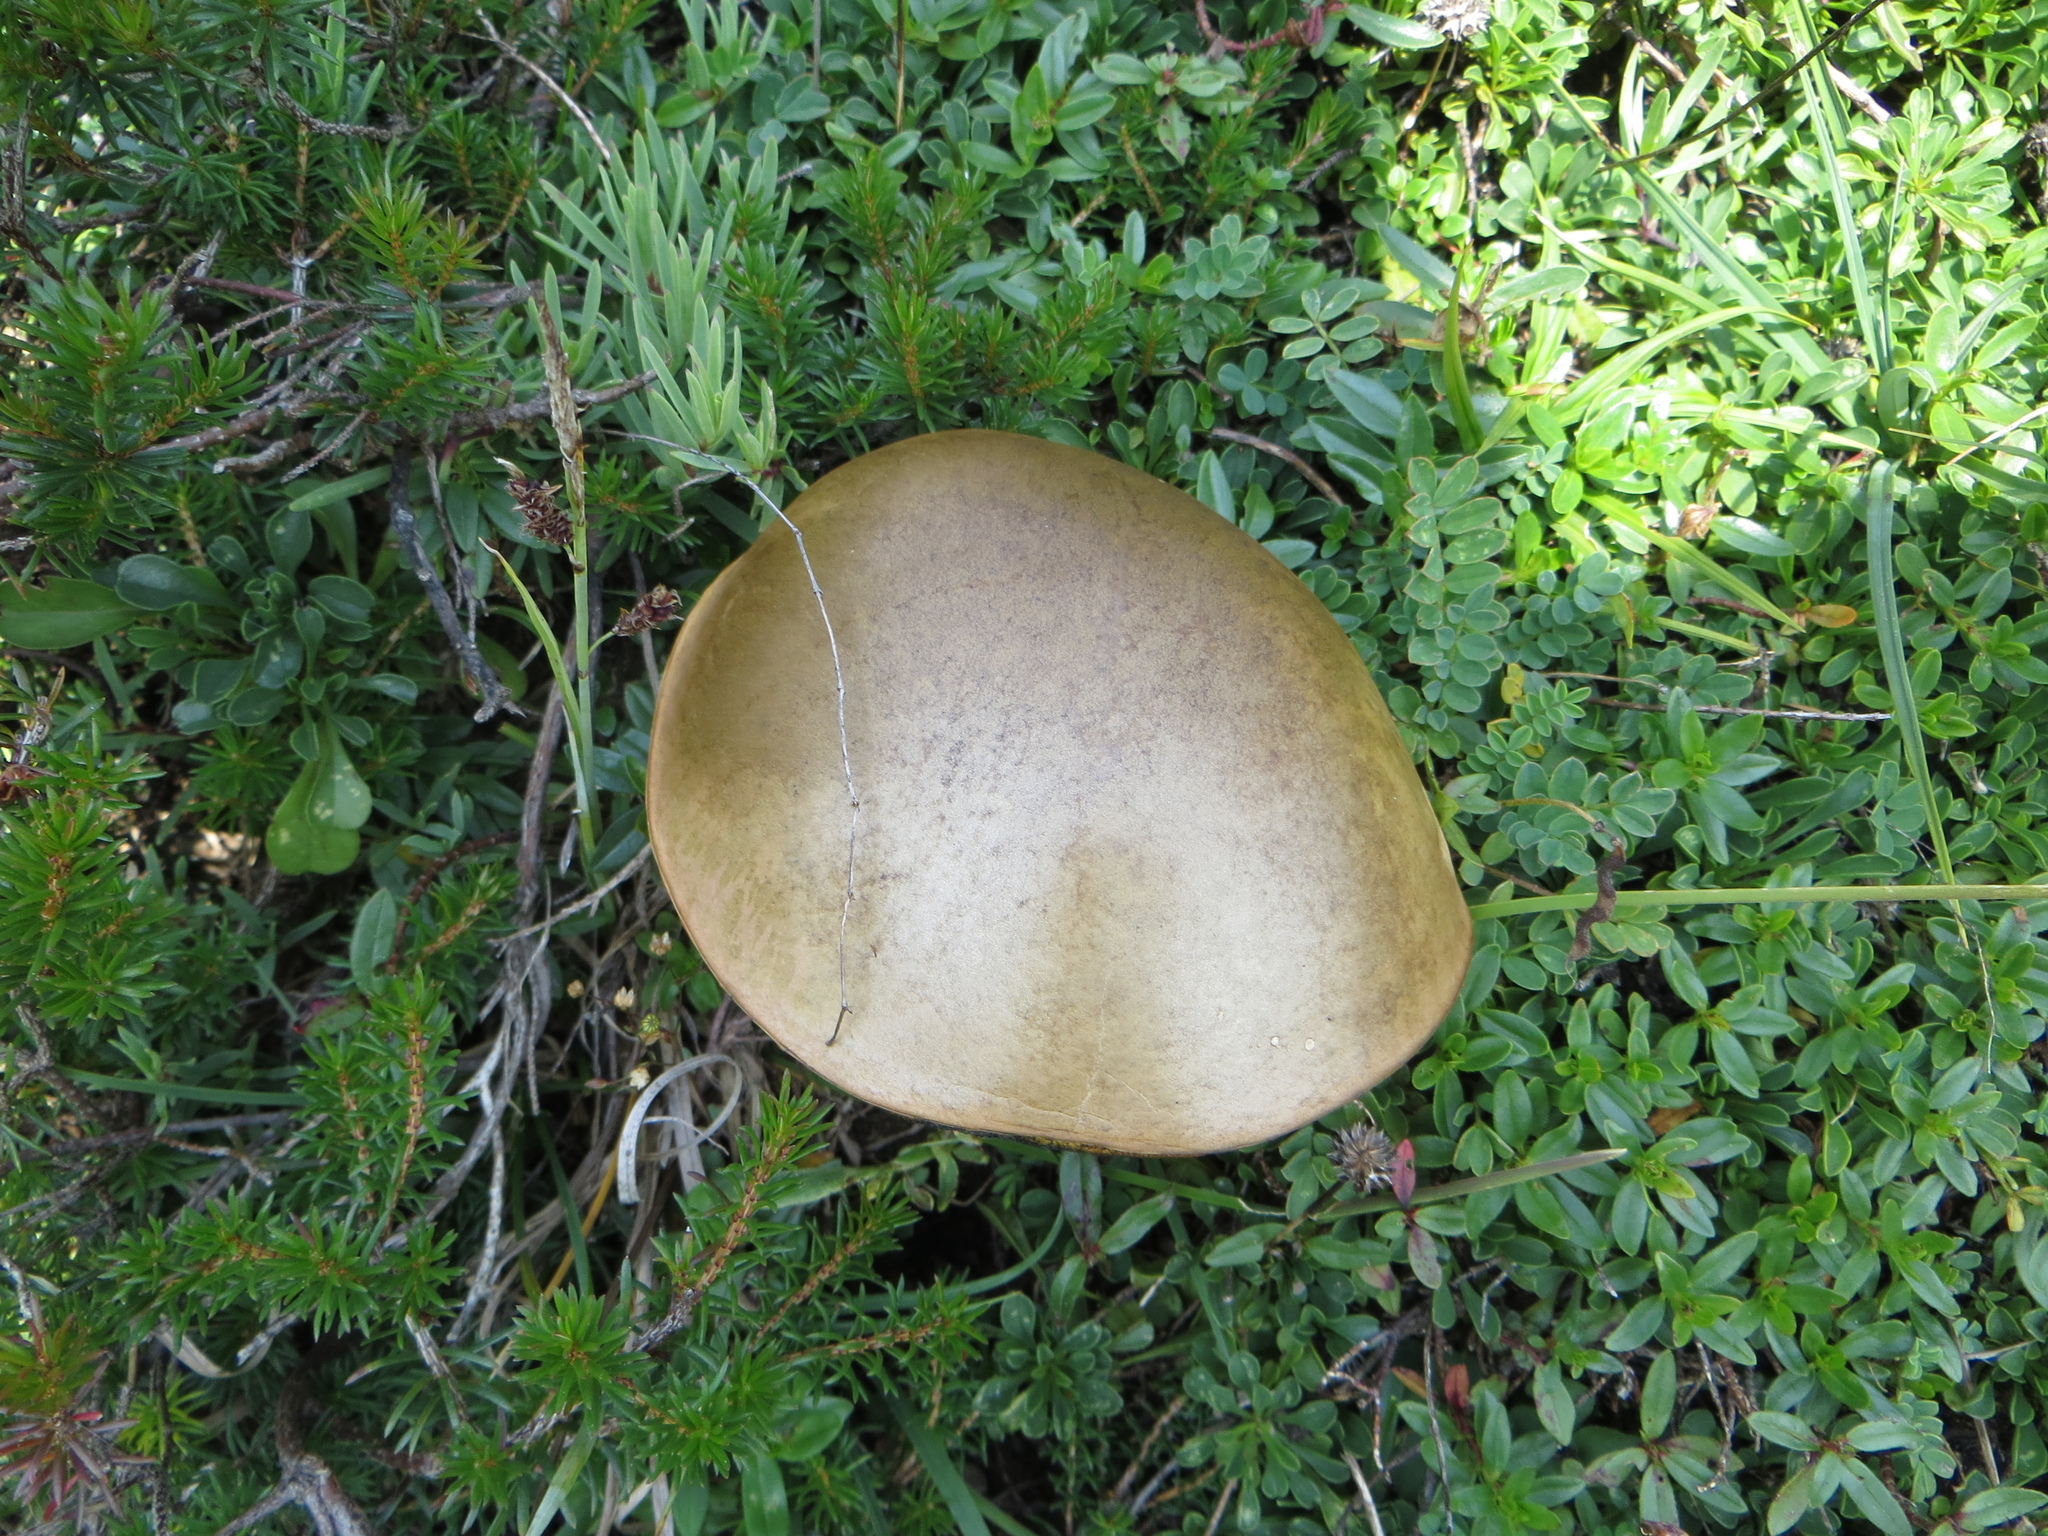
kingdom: Fungi
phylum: Basidiomycota
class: Agaricomycetes
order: Boletales
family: Boletaceae
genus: Suillellus
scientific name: Suillellus luridus
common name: Lurid bolete
